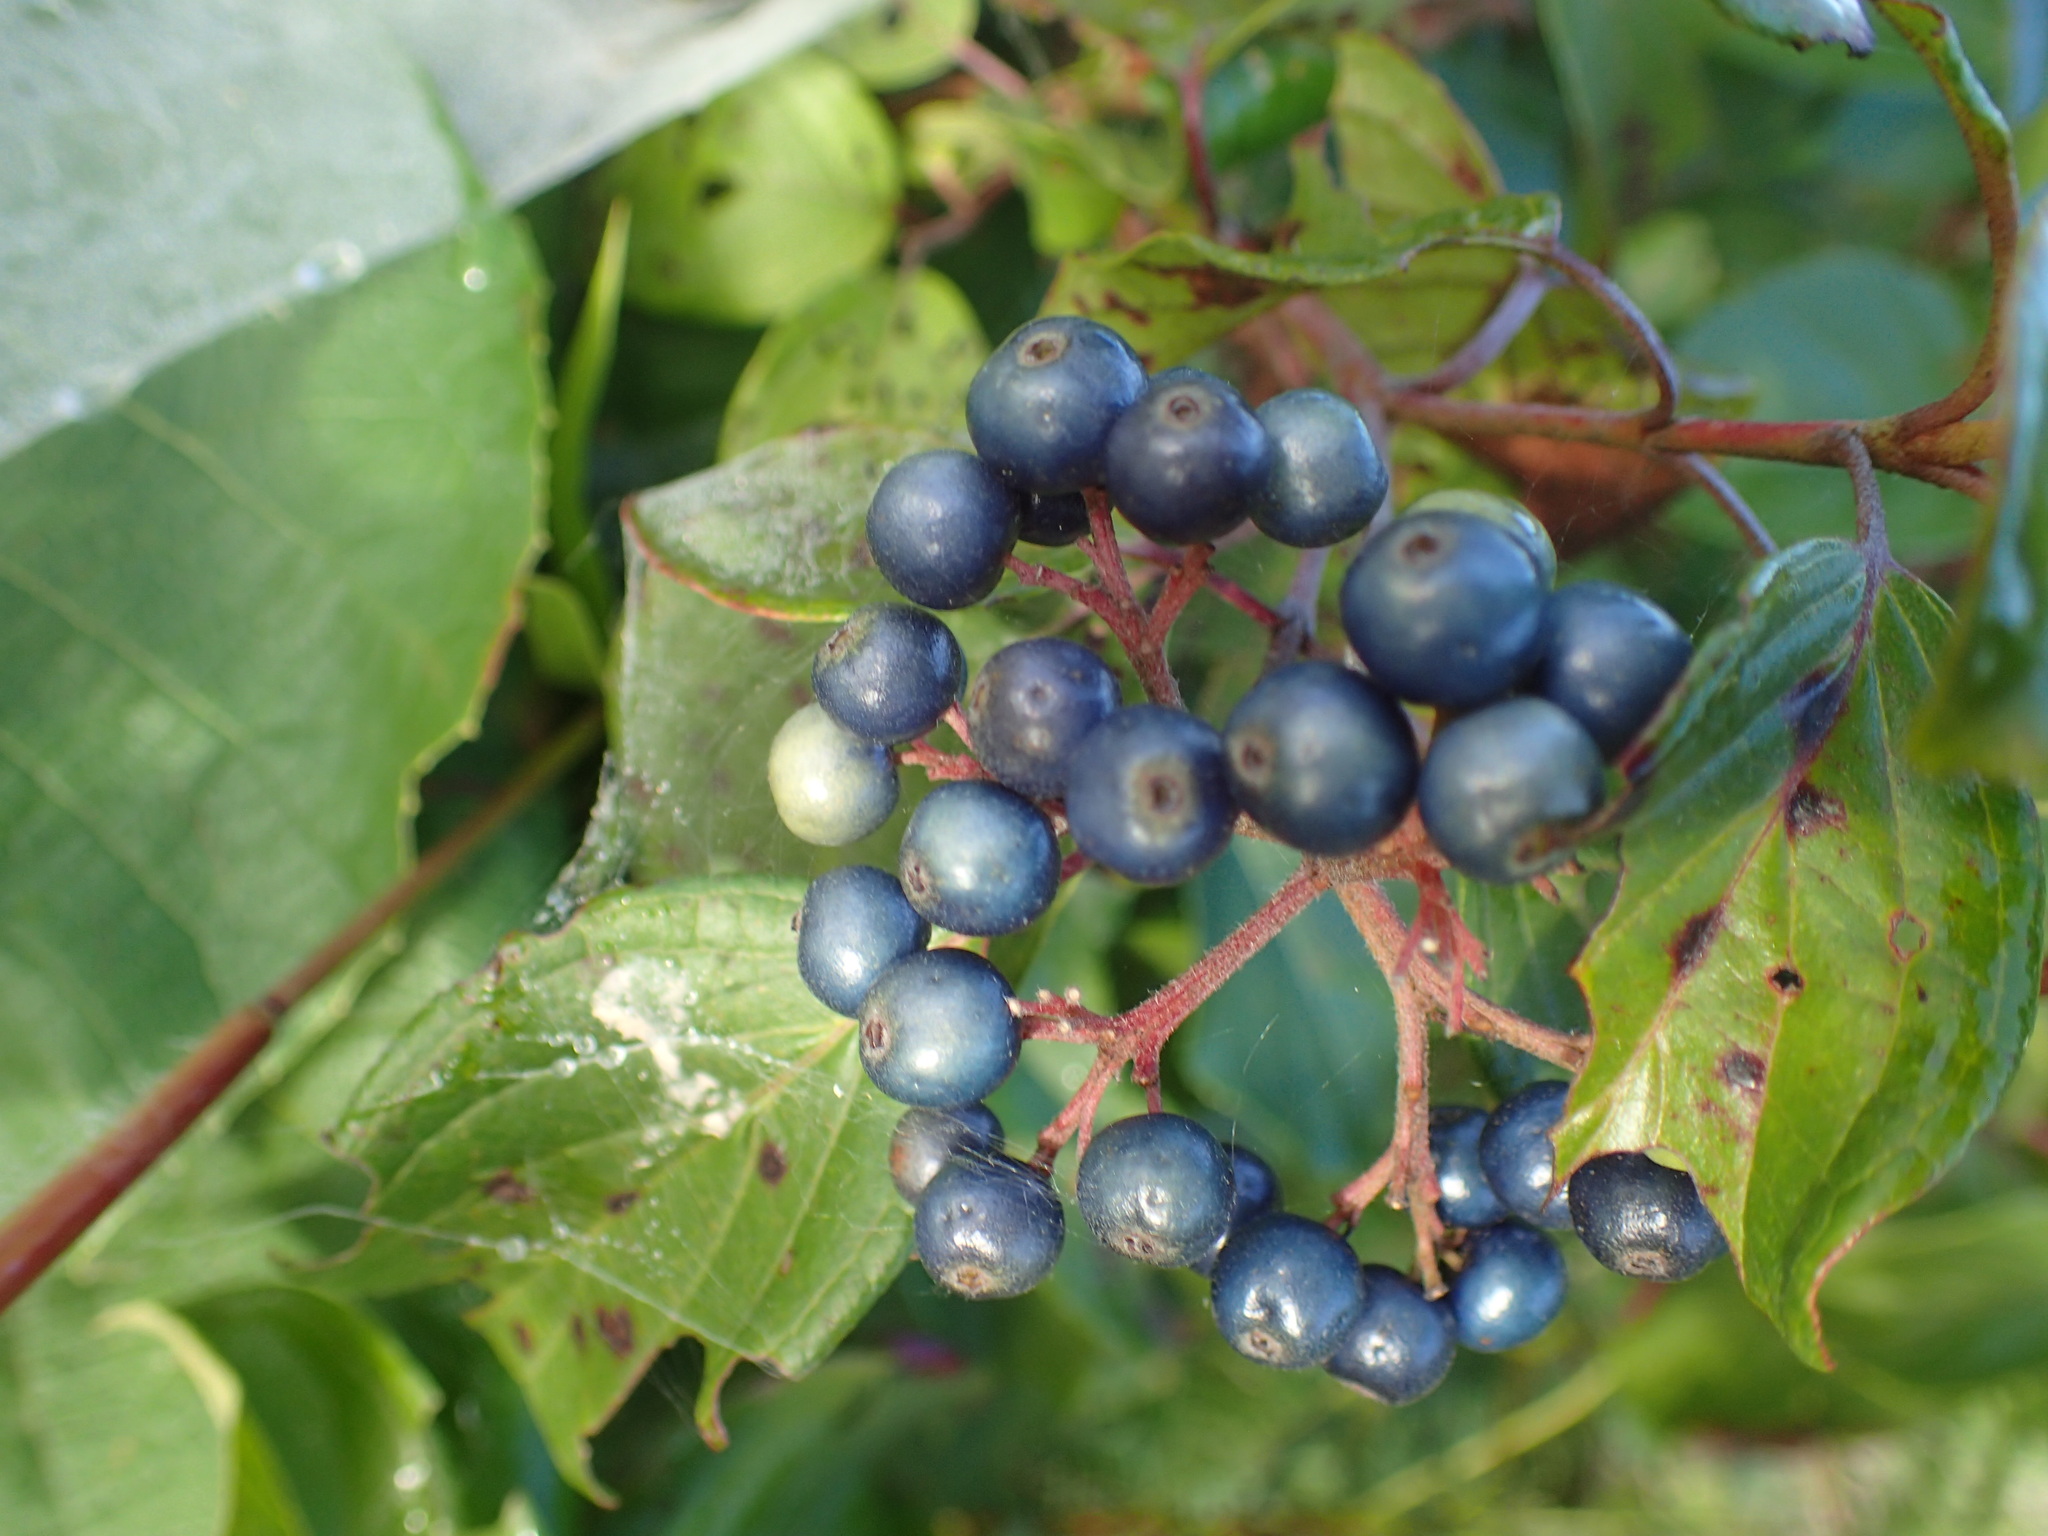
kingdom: Plantae
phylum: Tracheophyta
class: Magnoliopsida
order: Cornales
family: Cornaceae
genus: Cornus
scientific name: Cornus amomum
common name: Silky dogwood
